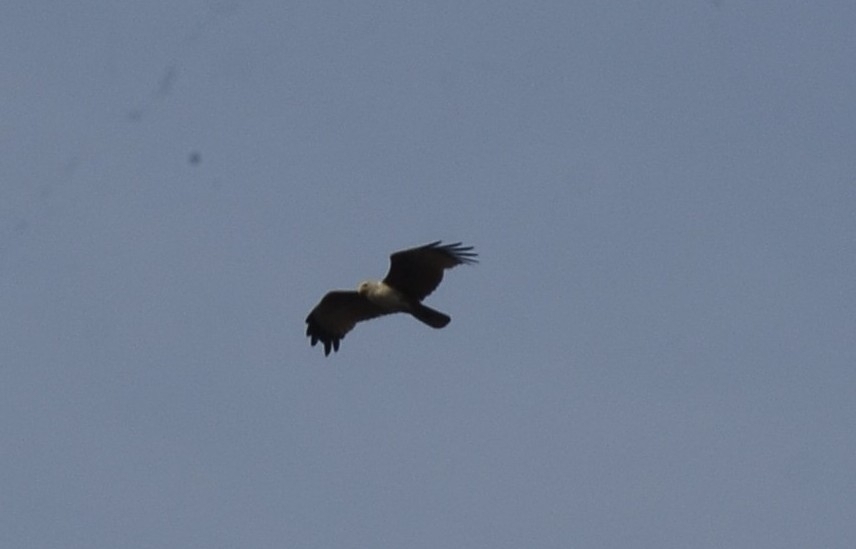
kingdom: Animalia
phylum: Chordata
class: Aves
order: Accipitriformes
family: Accipitridae
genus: Haliastur
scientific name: Haliastur indus
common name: Brahminy kite
